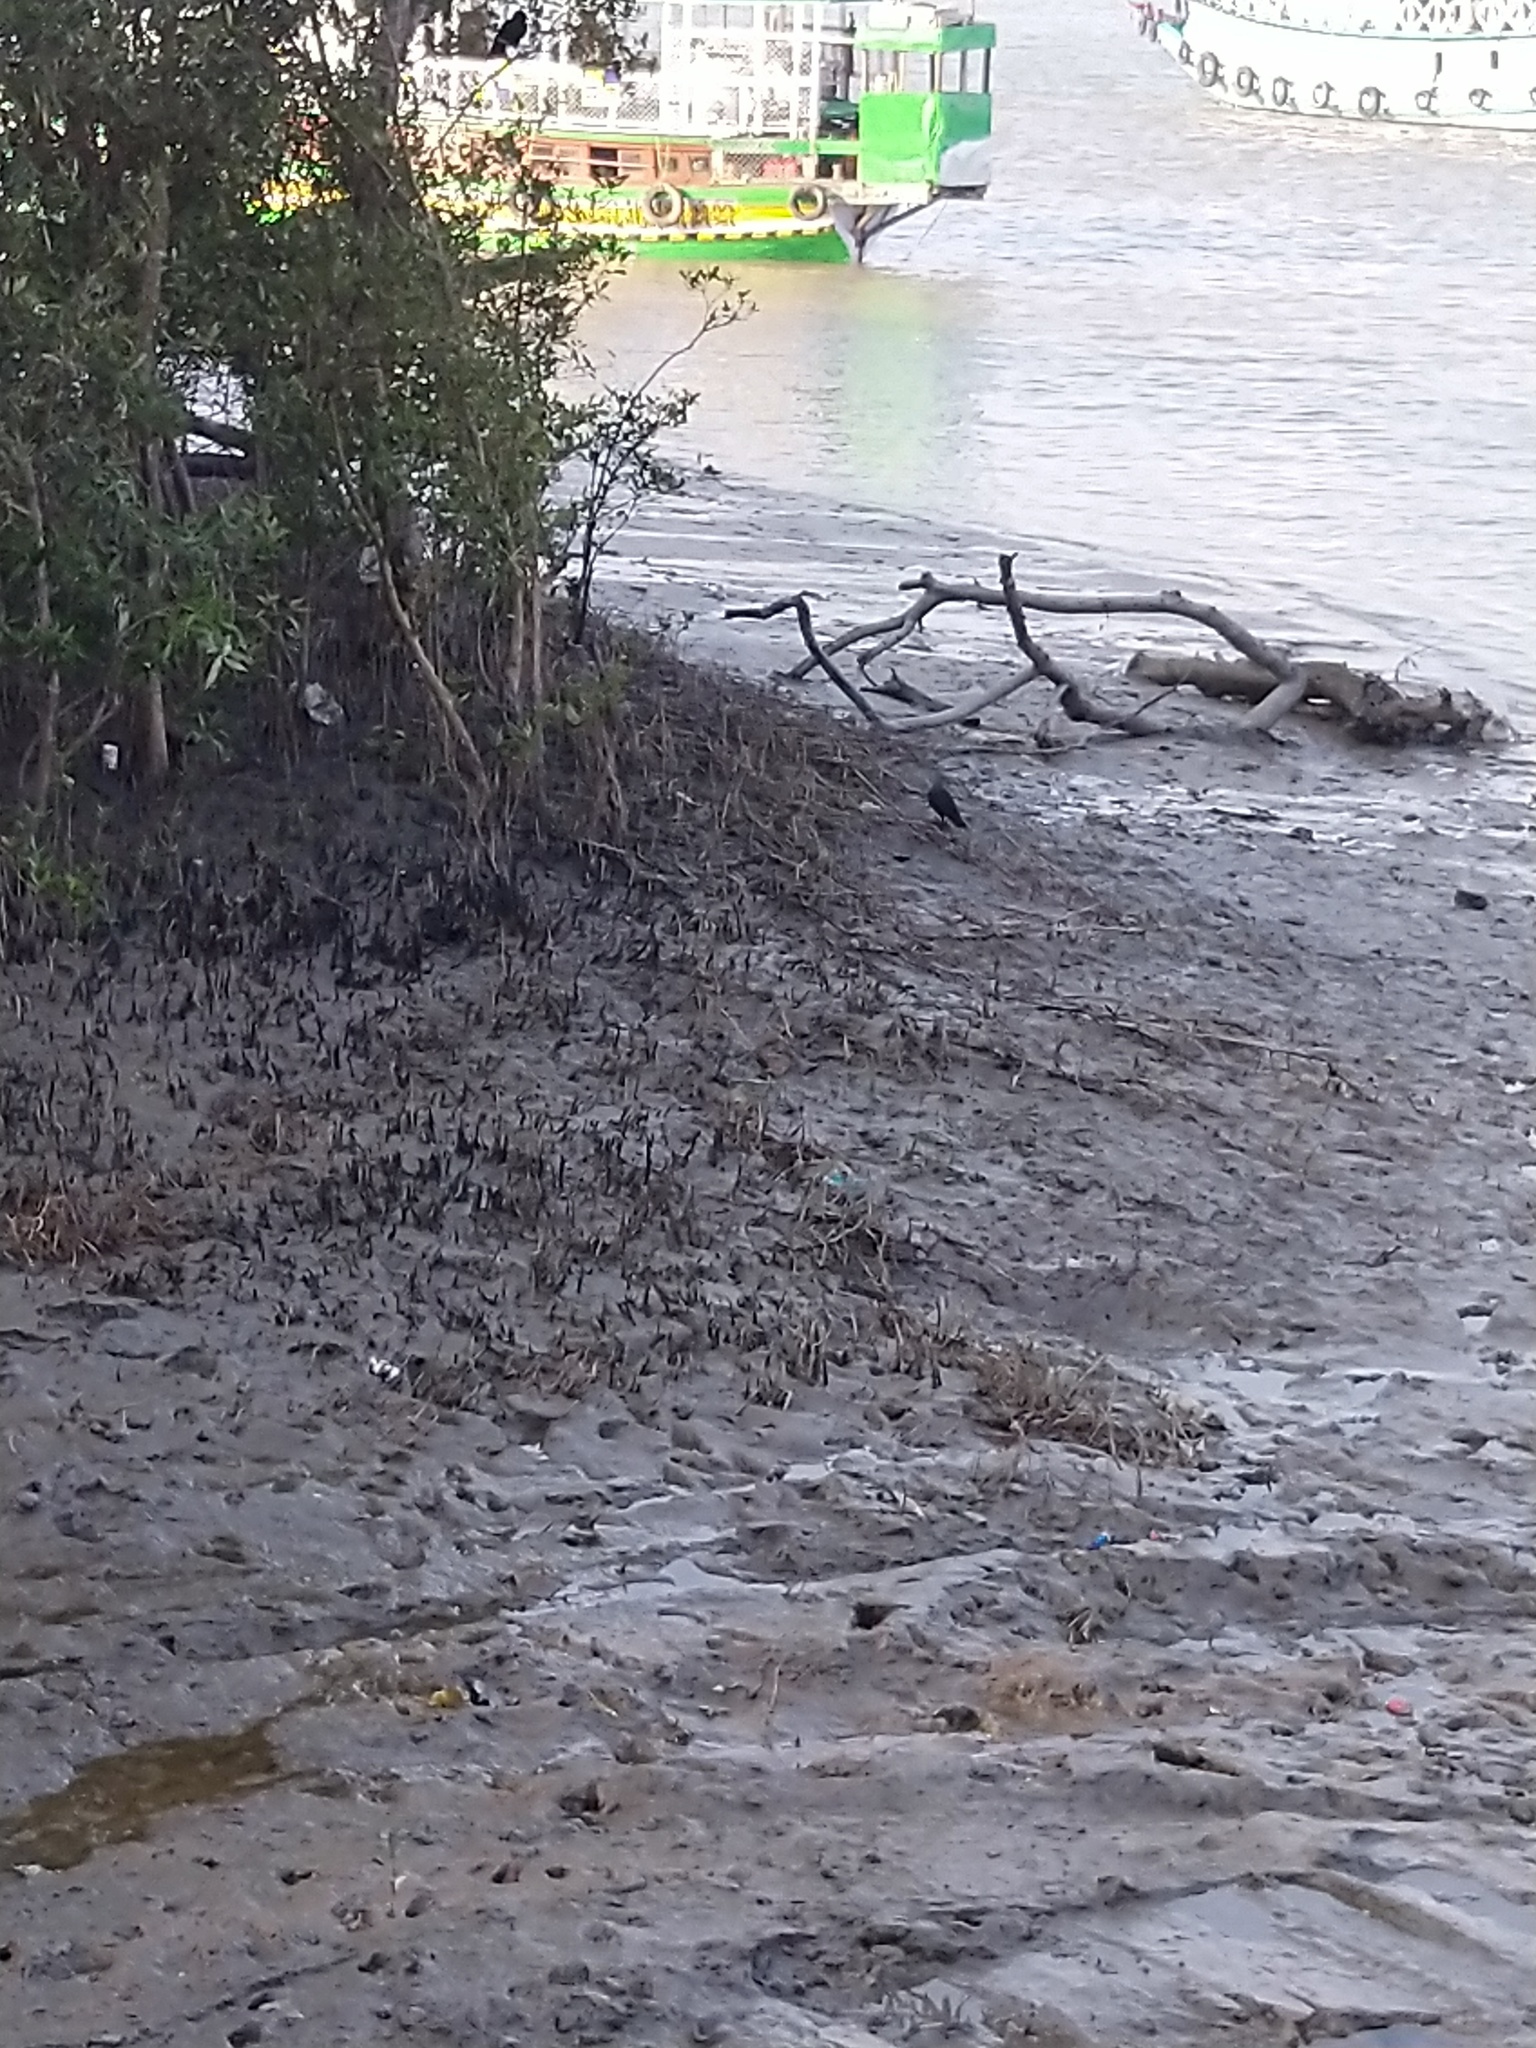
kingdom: Animalia
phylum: Chordata
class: Aves
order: Passeriformes
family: Corvidae
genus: Corvus
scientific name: Corvus splendens
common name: House crow
